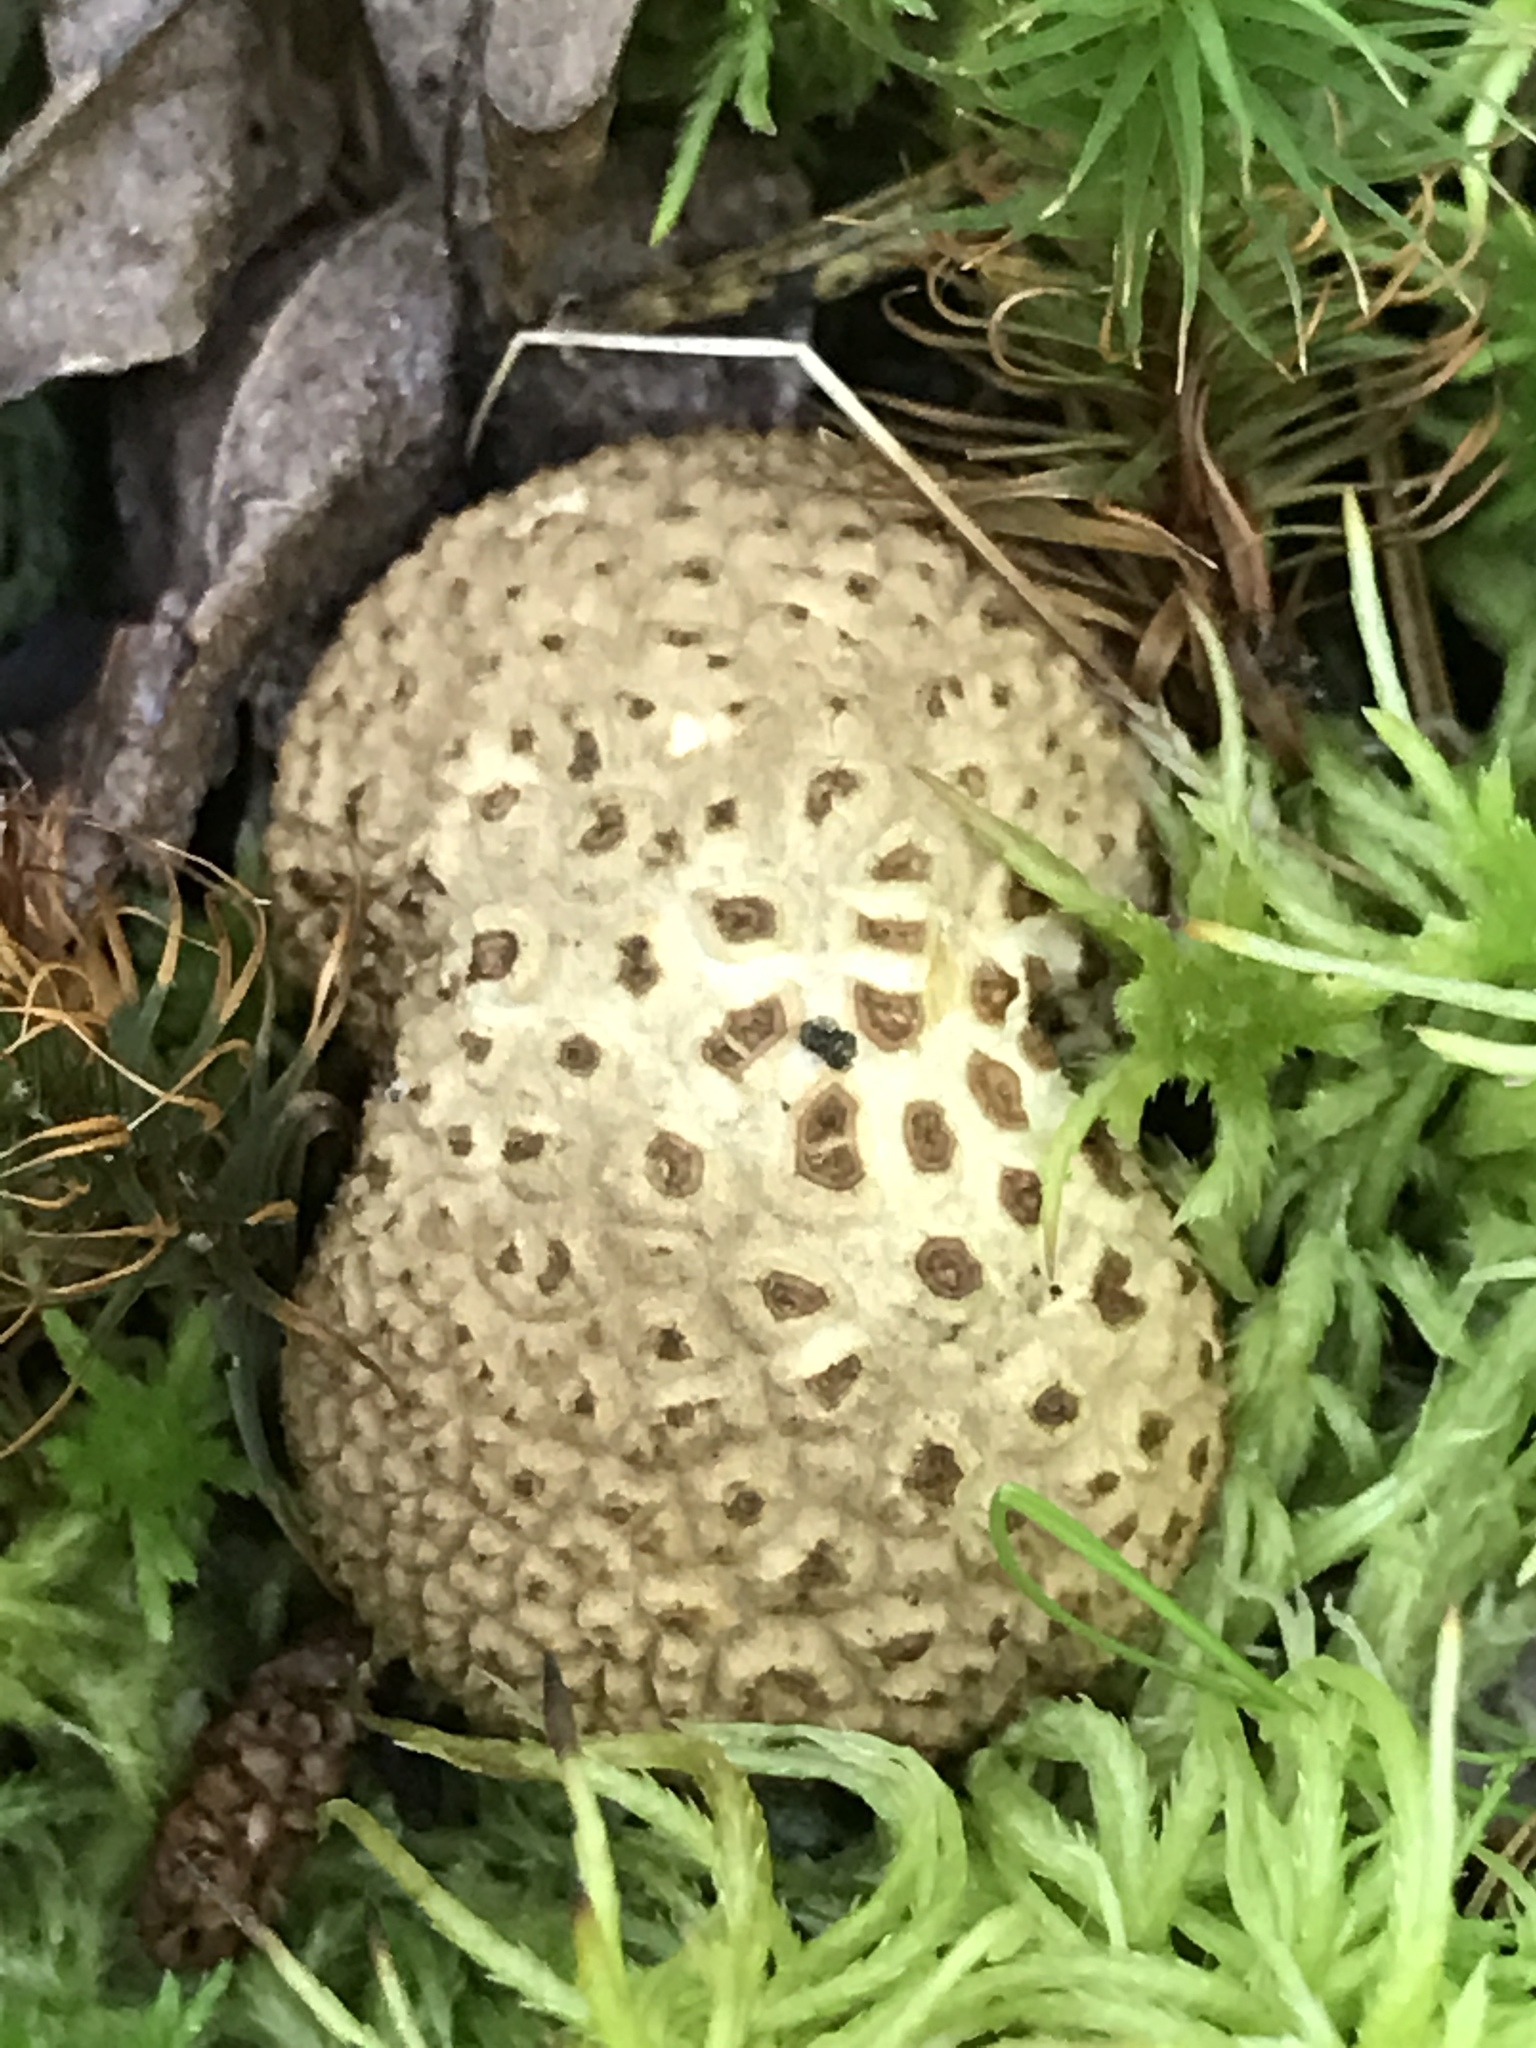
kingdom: Fungi
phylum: Basidiomycota
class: Agaricomycetes
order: Boletales
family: Sclerodermataceae
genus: Scleroderma
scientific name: Scleroderma citrinum
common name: Common earthball
